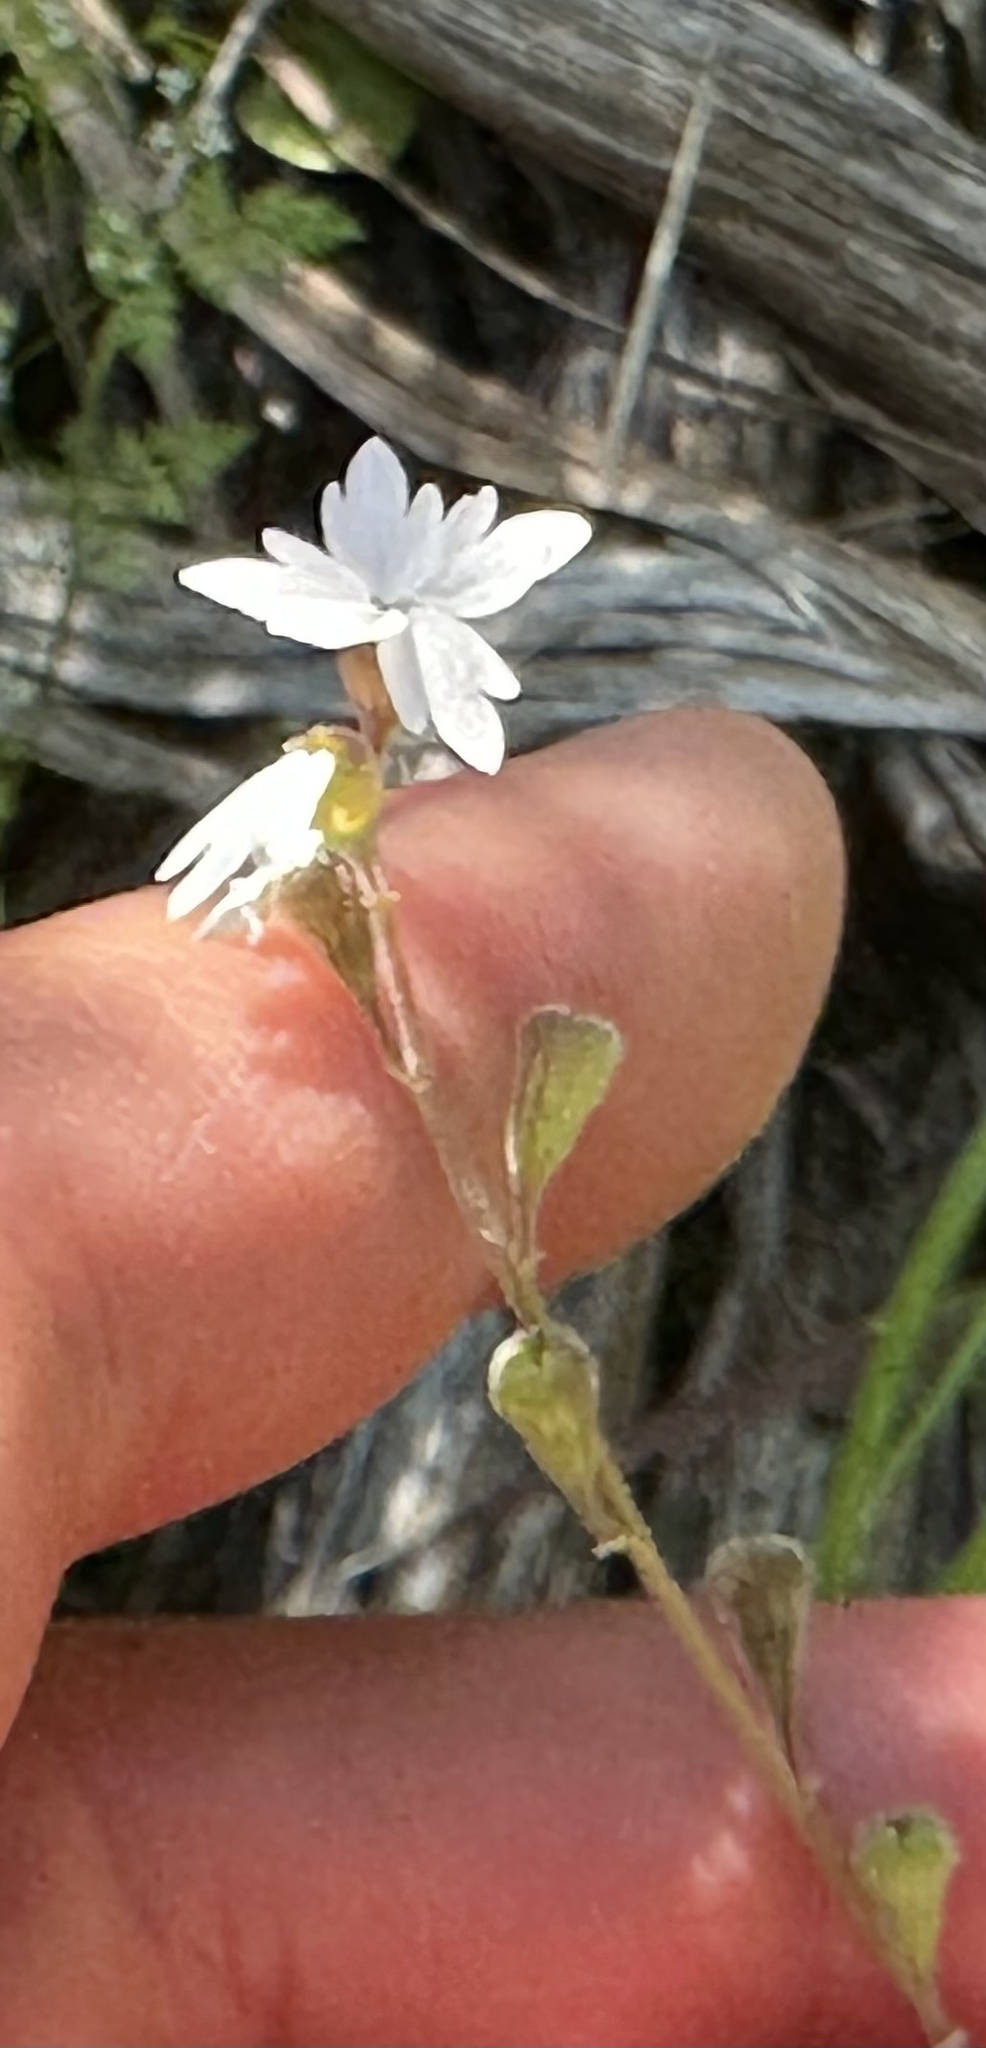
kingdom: Plantae
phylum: Tracheophyta
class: Magnoliopsida
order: Saxifragales
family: Saxifragaceae
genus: Lithophragma
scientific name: Lithophragma parviflorum
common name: Small-flowered fringe-cup
